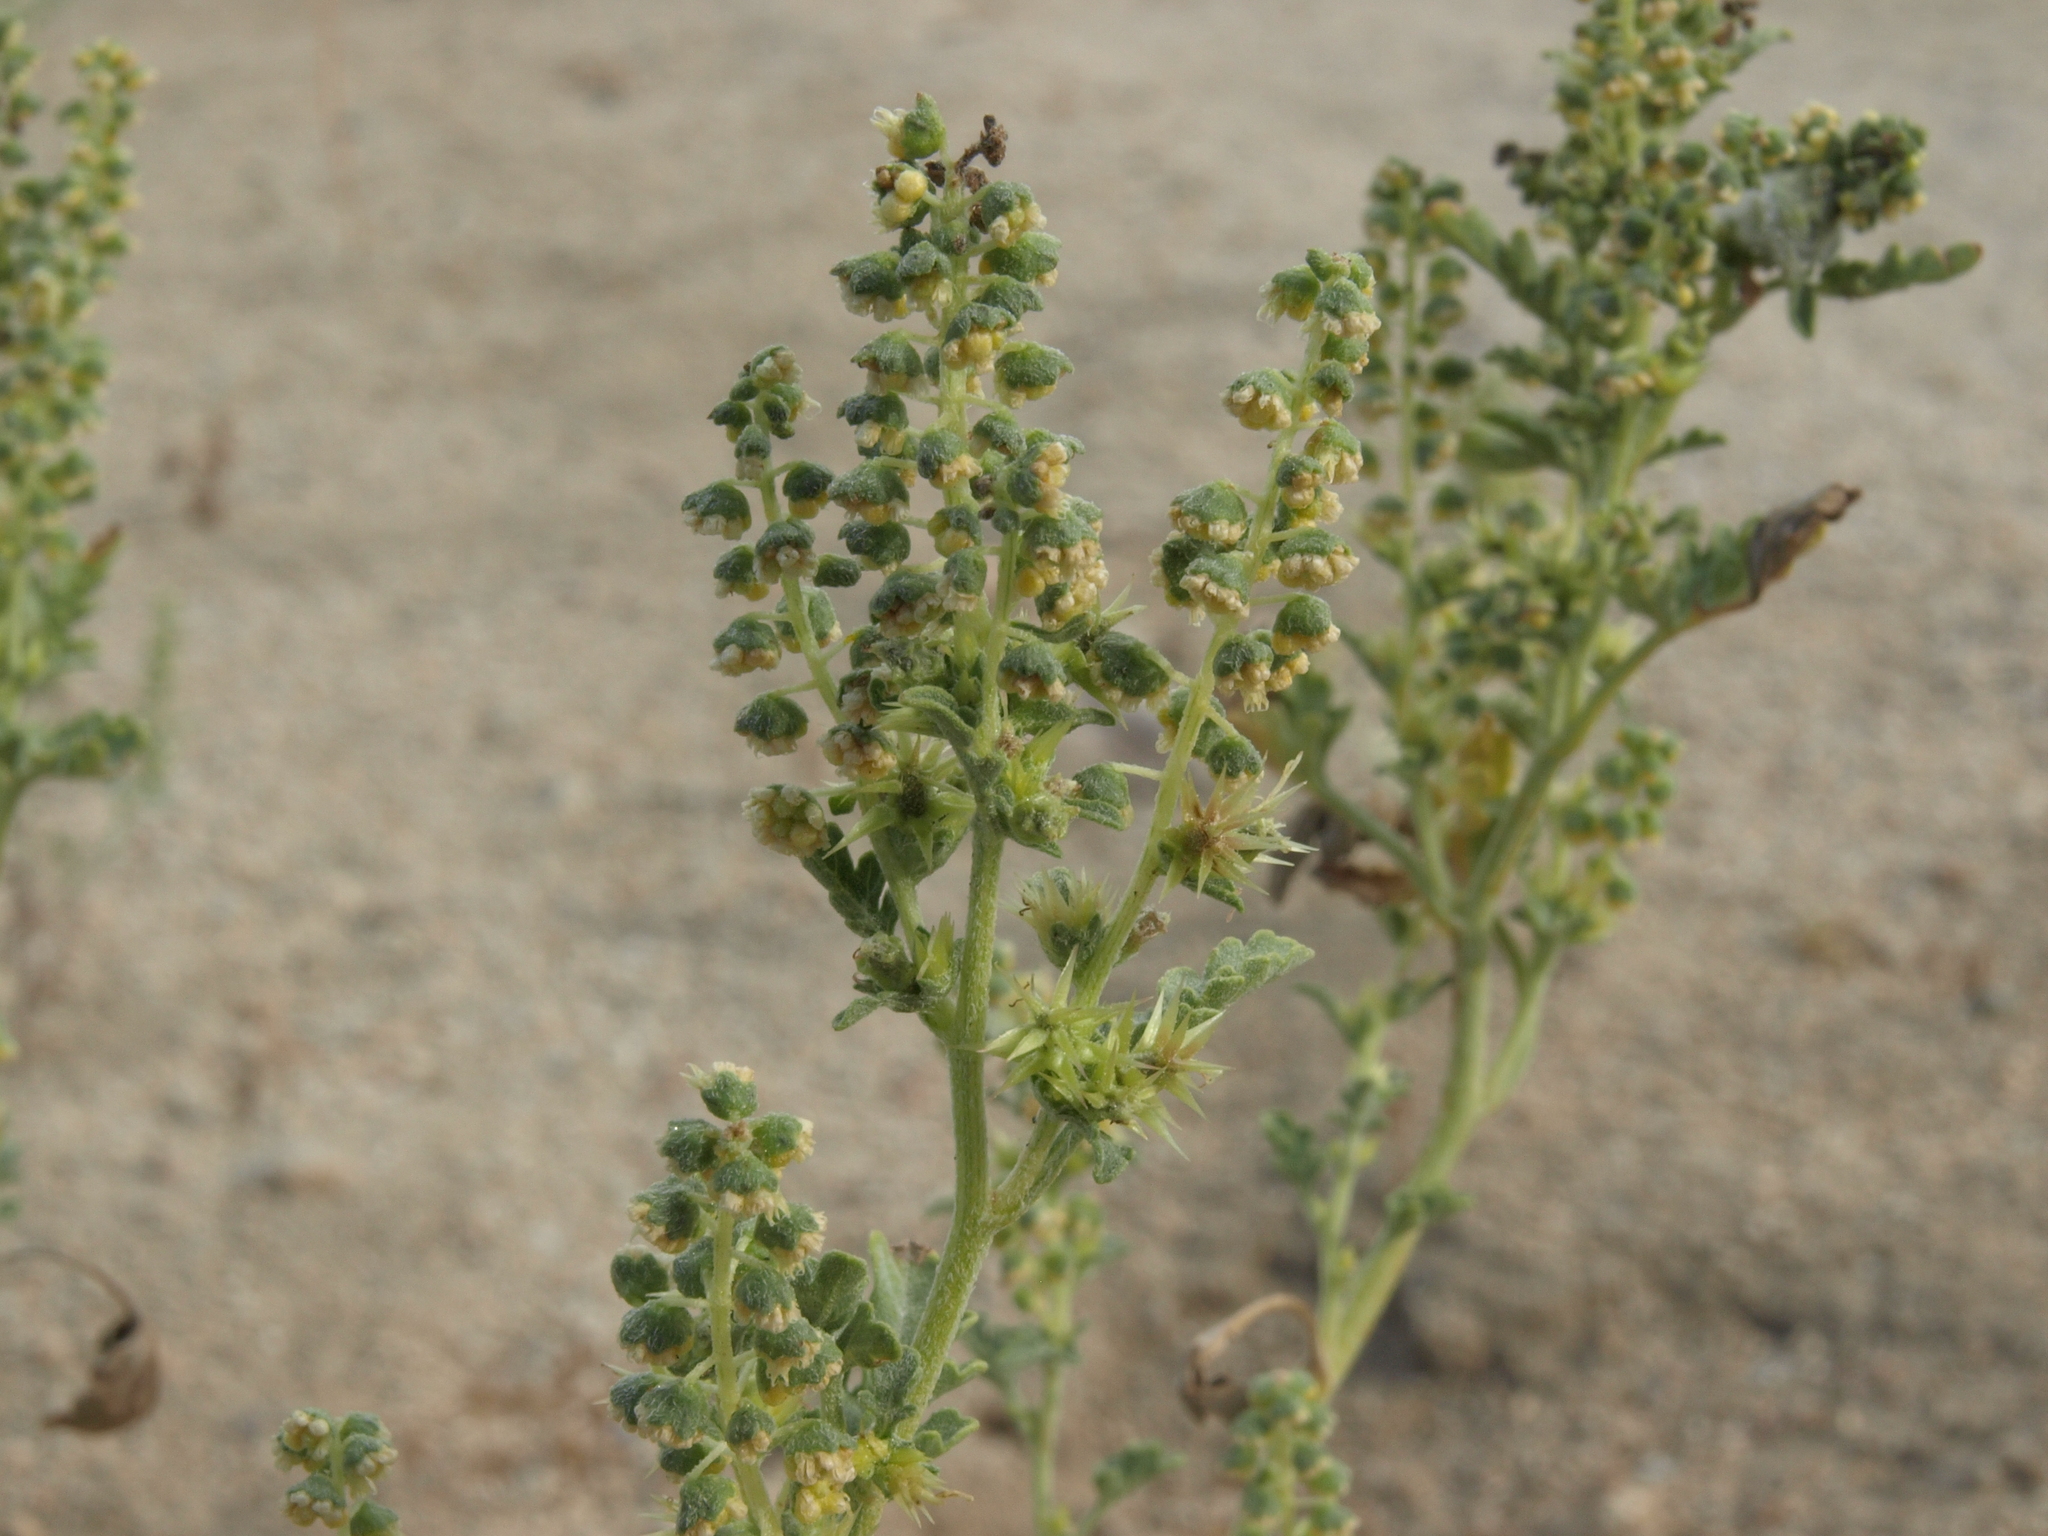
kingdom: Plantae
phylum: Tracheophyta
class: Magnoliopsida
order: Asterales
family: Asteraceae
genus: Ambrosia
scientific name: Ambrosia acanthicarpa
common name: Hooker's bur ragweed
